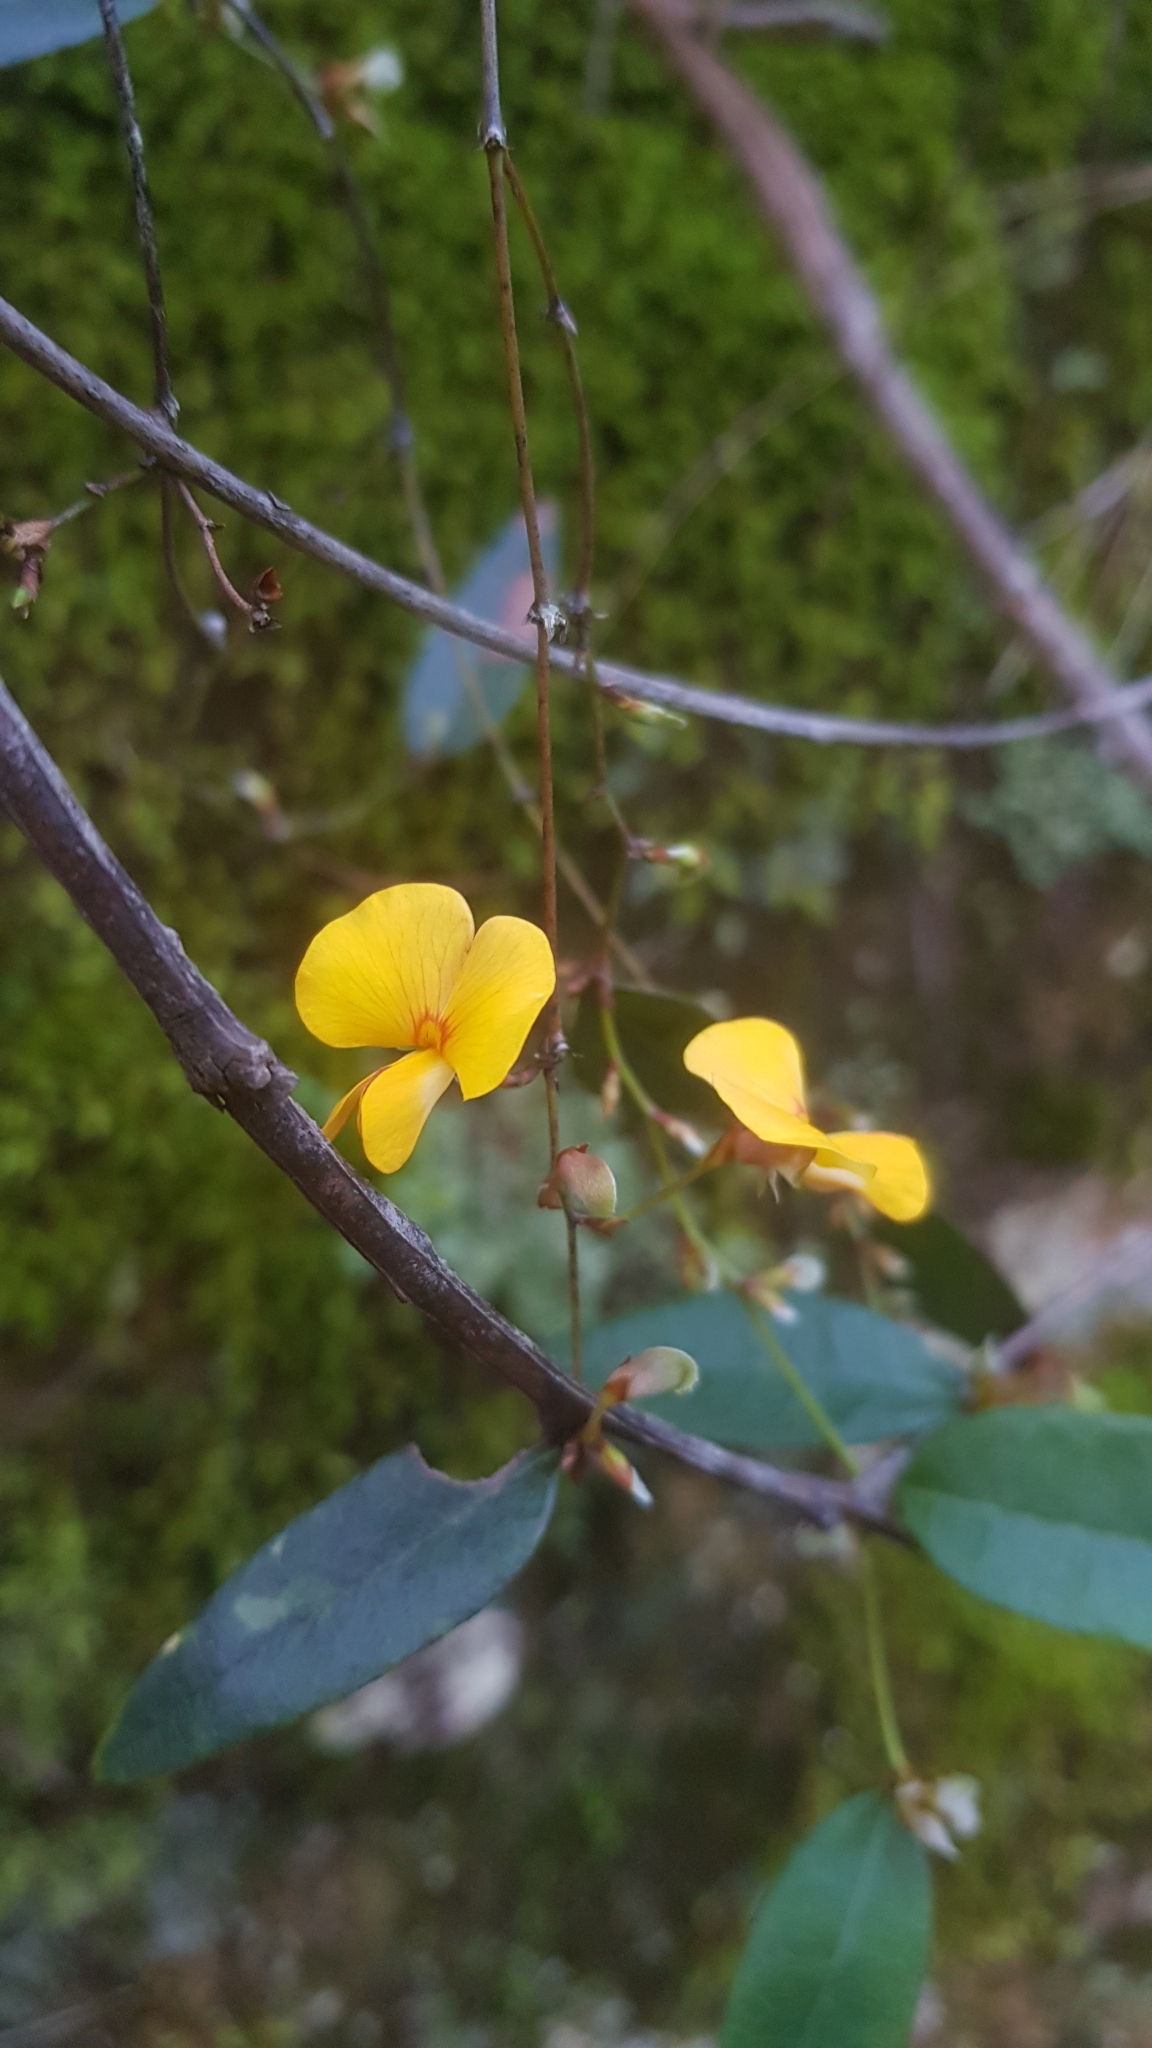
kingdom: Plantae
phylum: Tracheophyta
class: Magnoliopsida
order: Fabales
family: Fabaceae
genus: Platylobium
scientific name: Platylobium formosum
